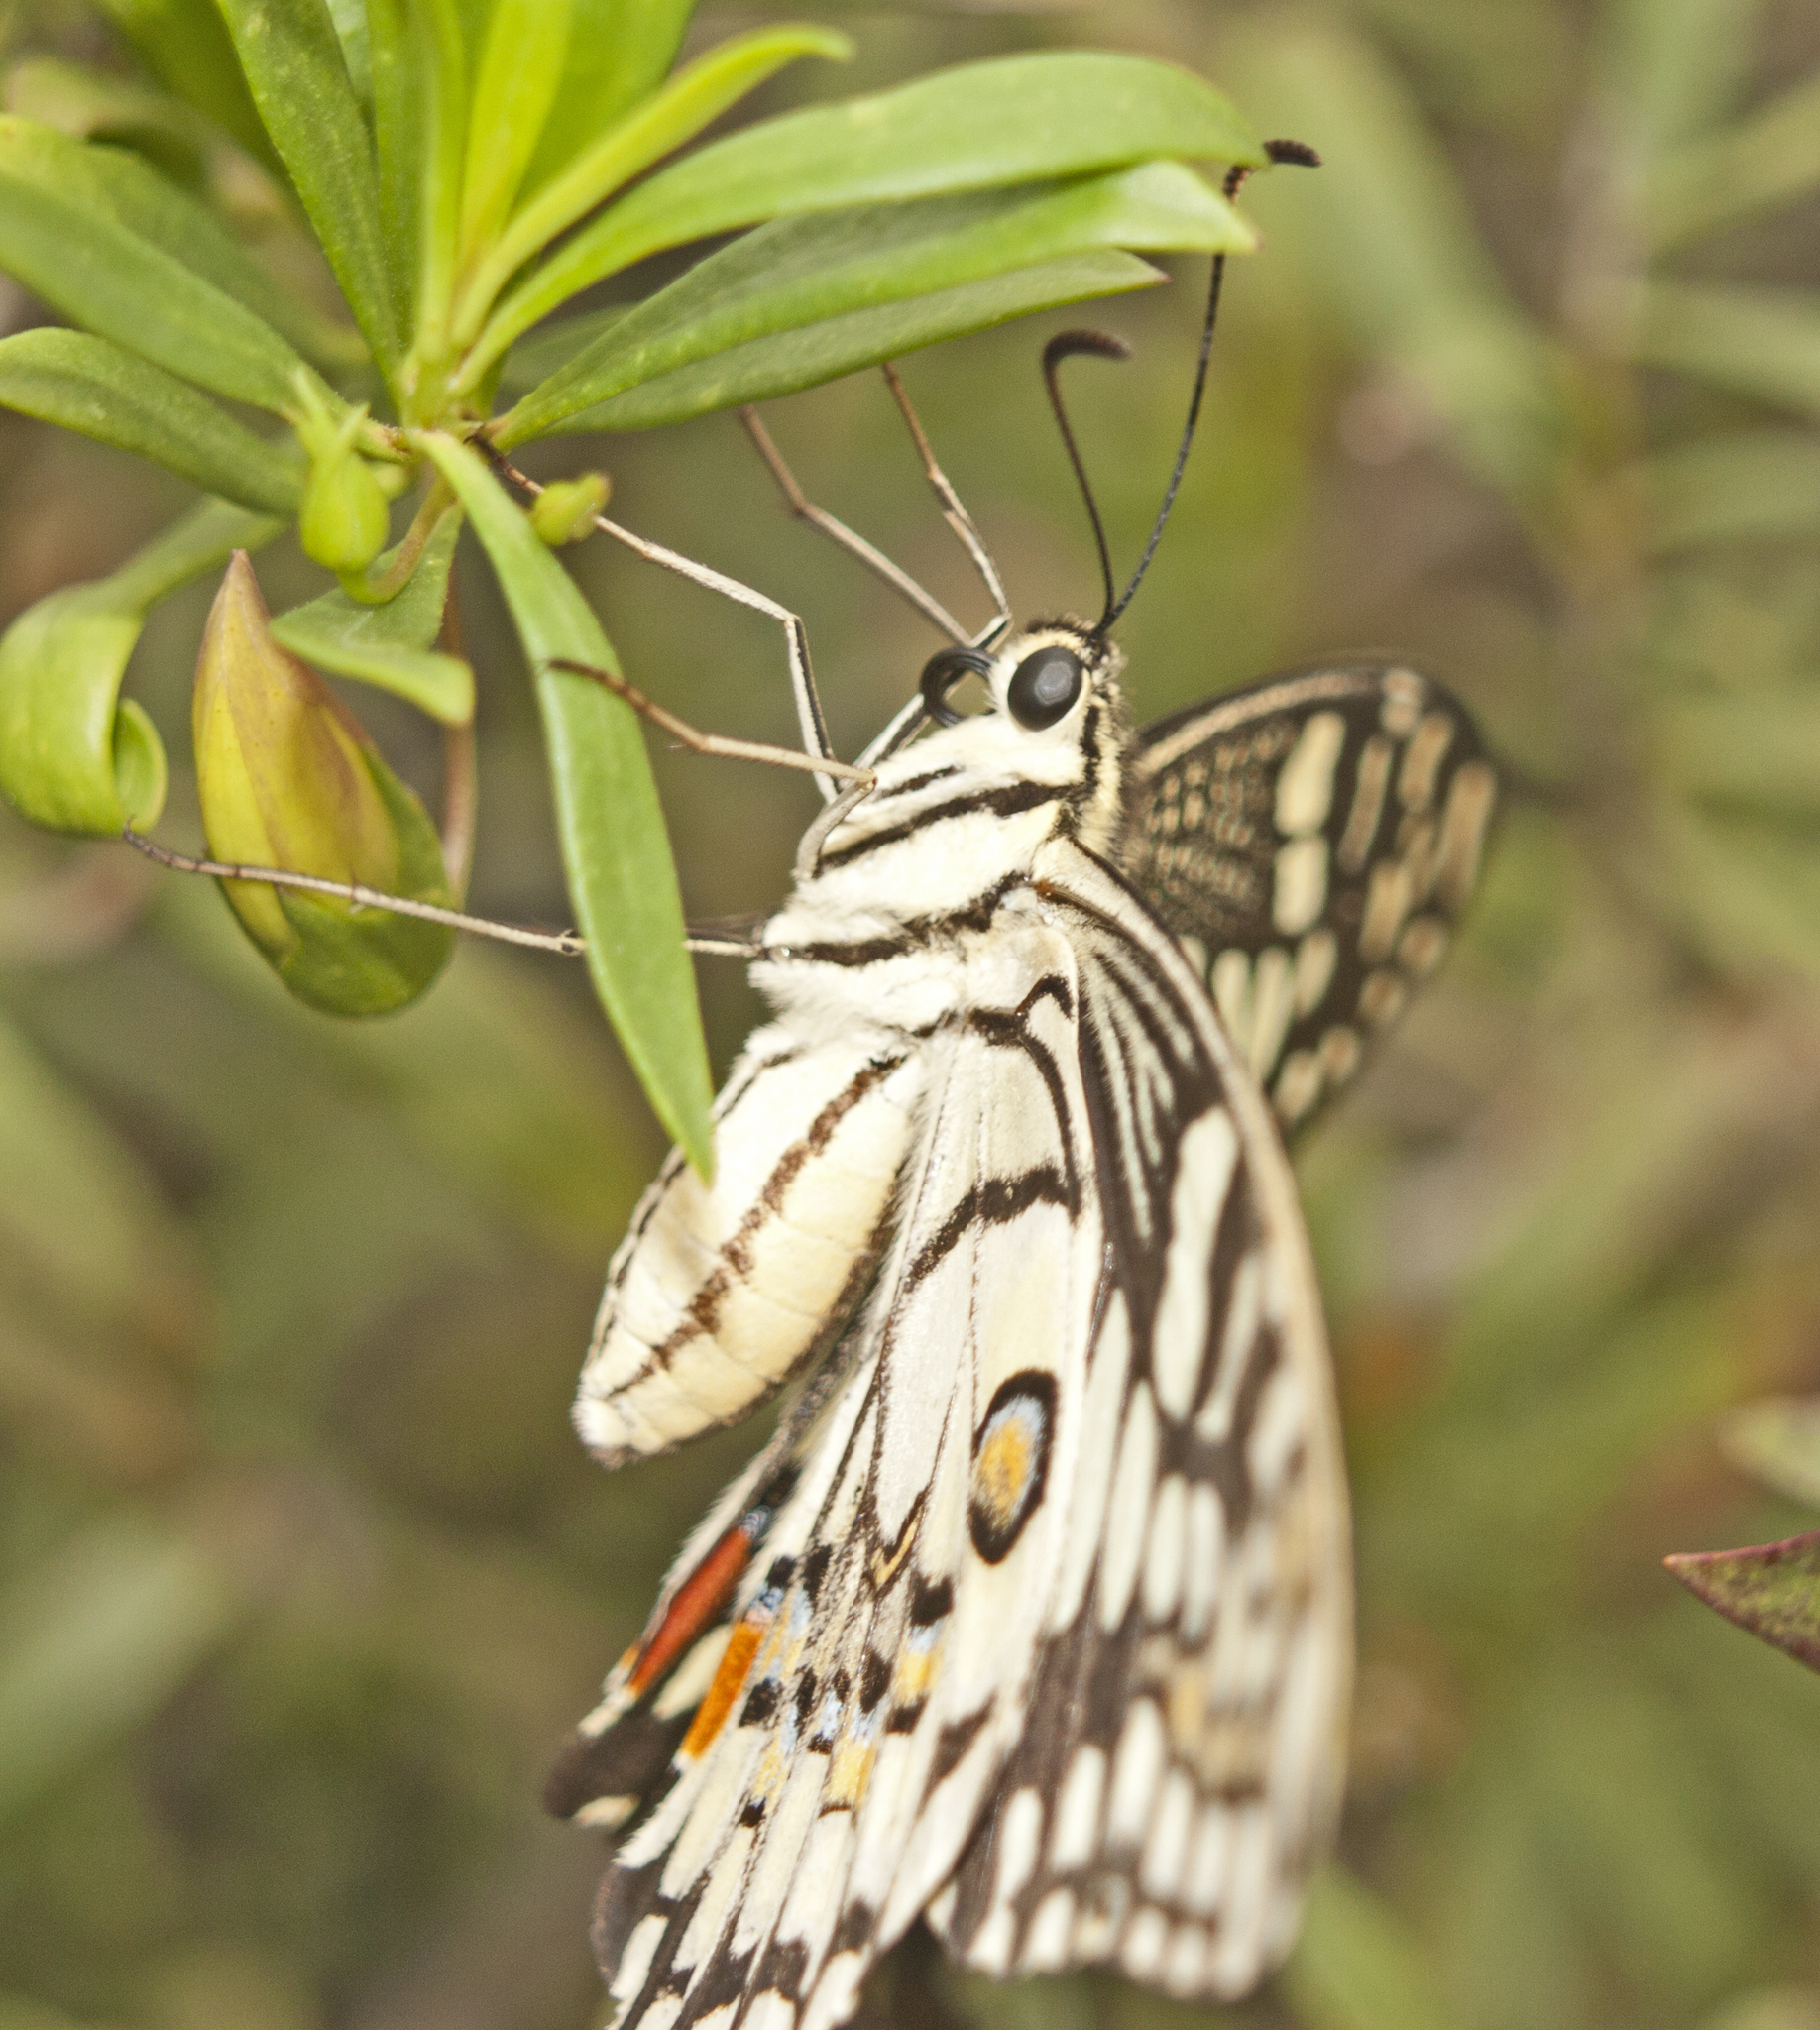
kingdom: Animalia
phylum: Arthropoda
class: Insecta
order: Lepidoptera
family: Papilionidae
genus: Papilio
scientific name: Papilio demoleus
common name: Lime butterfly
